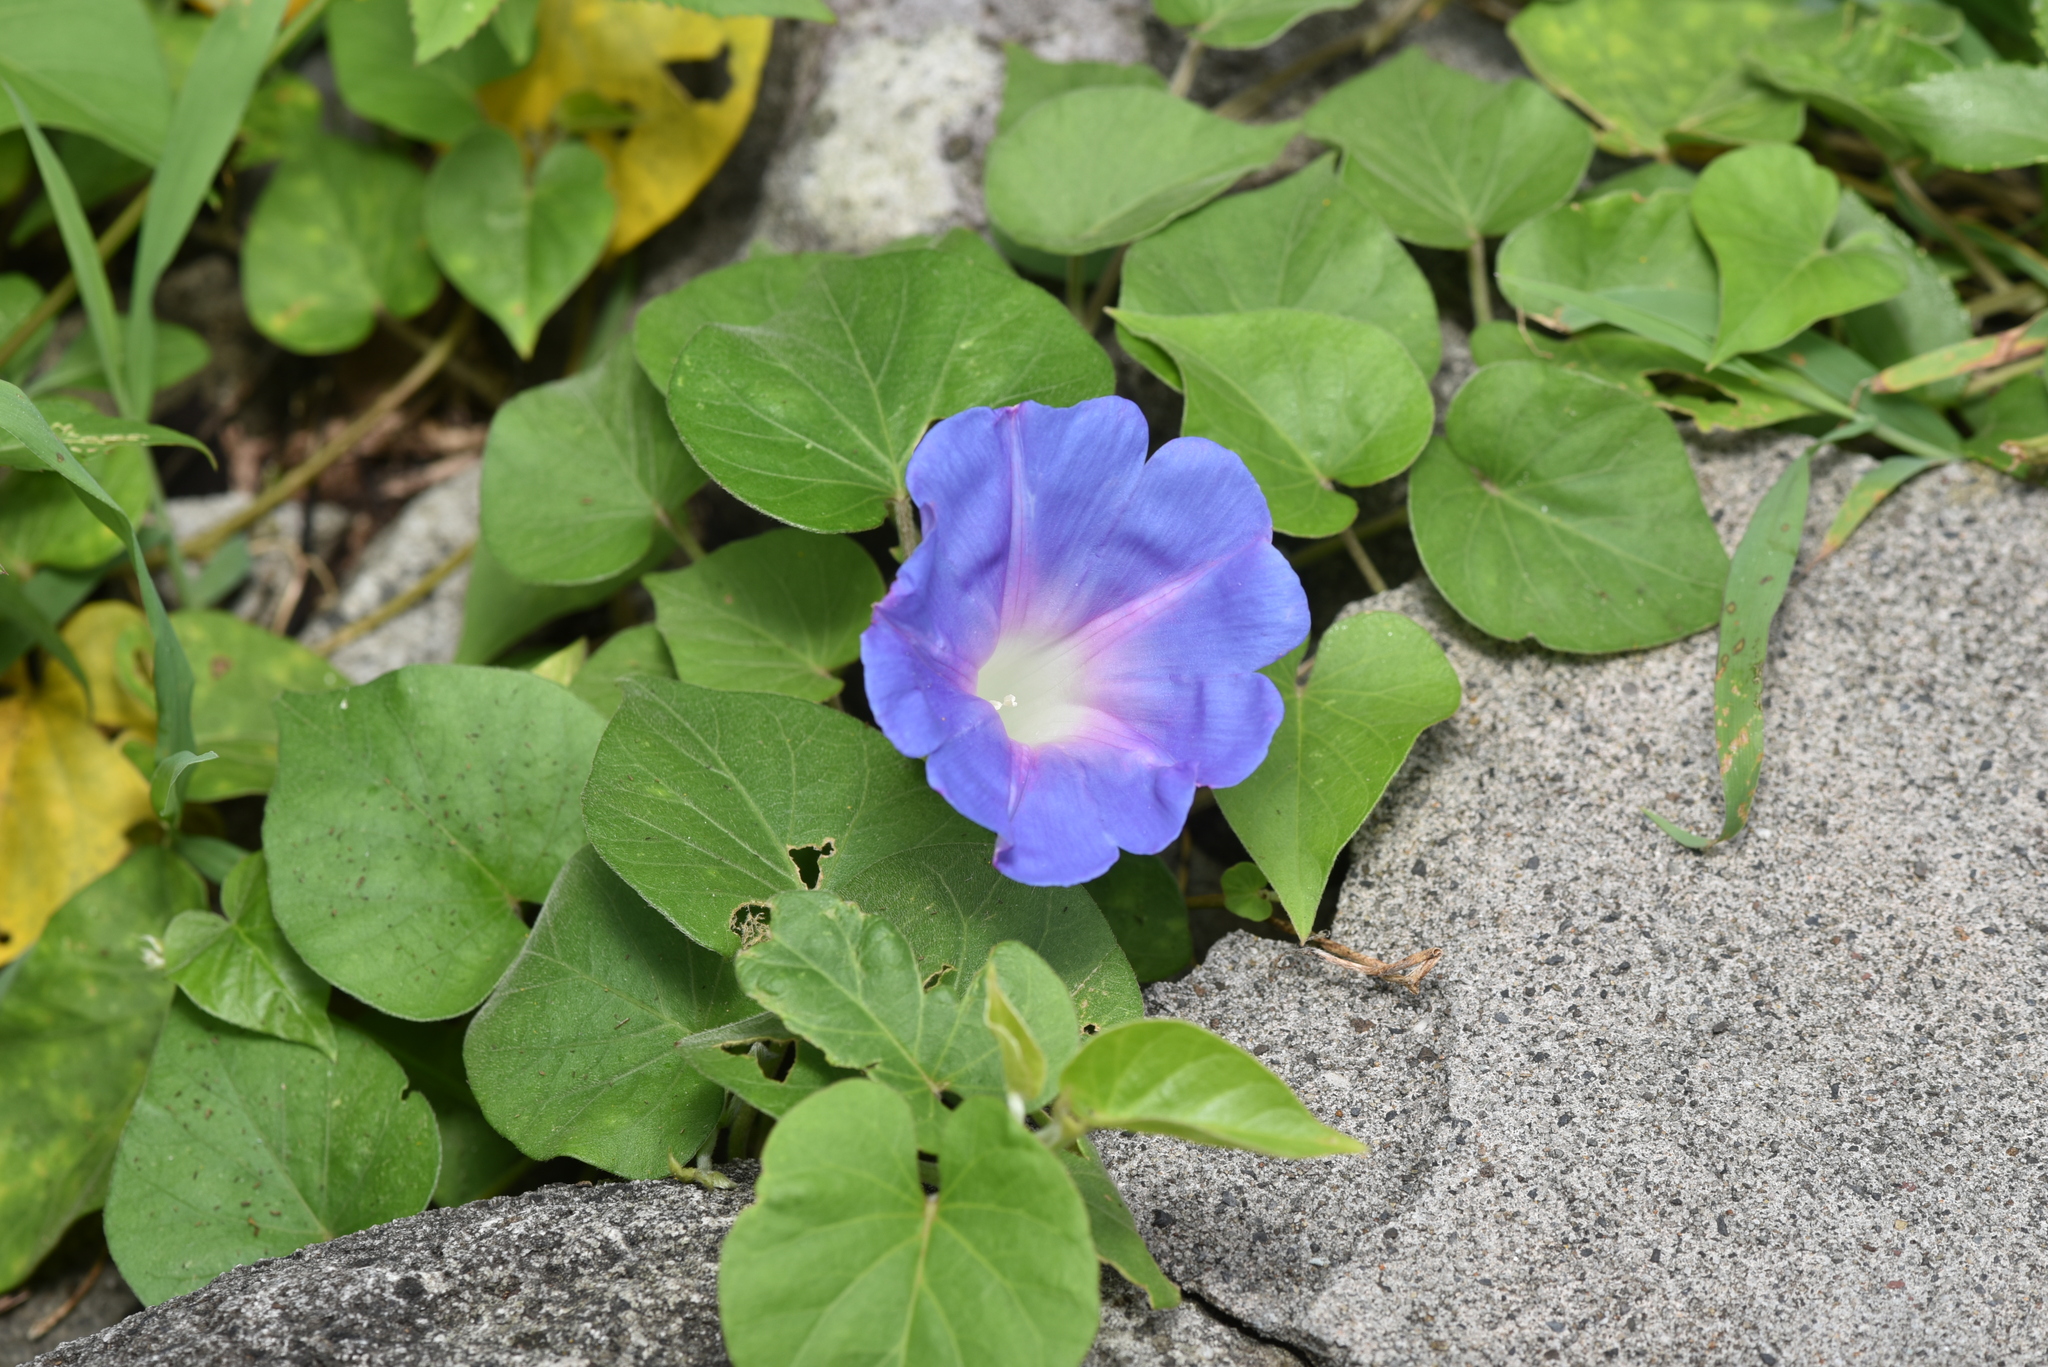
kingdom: Plantae
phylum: Tracheophyta
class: Magnoliopsida
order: Solanales
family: Convolvulaceae
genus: Ipomoea
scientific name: Ipomoea indica
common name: Blue dawnflower
